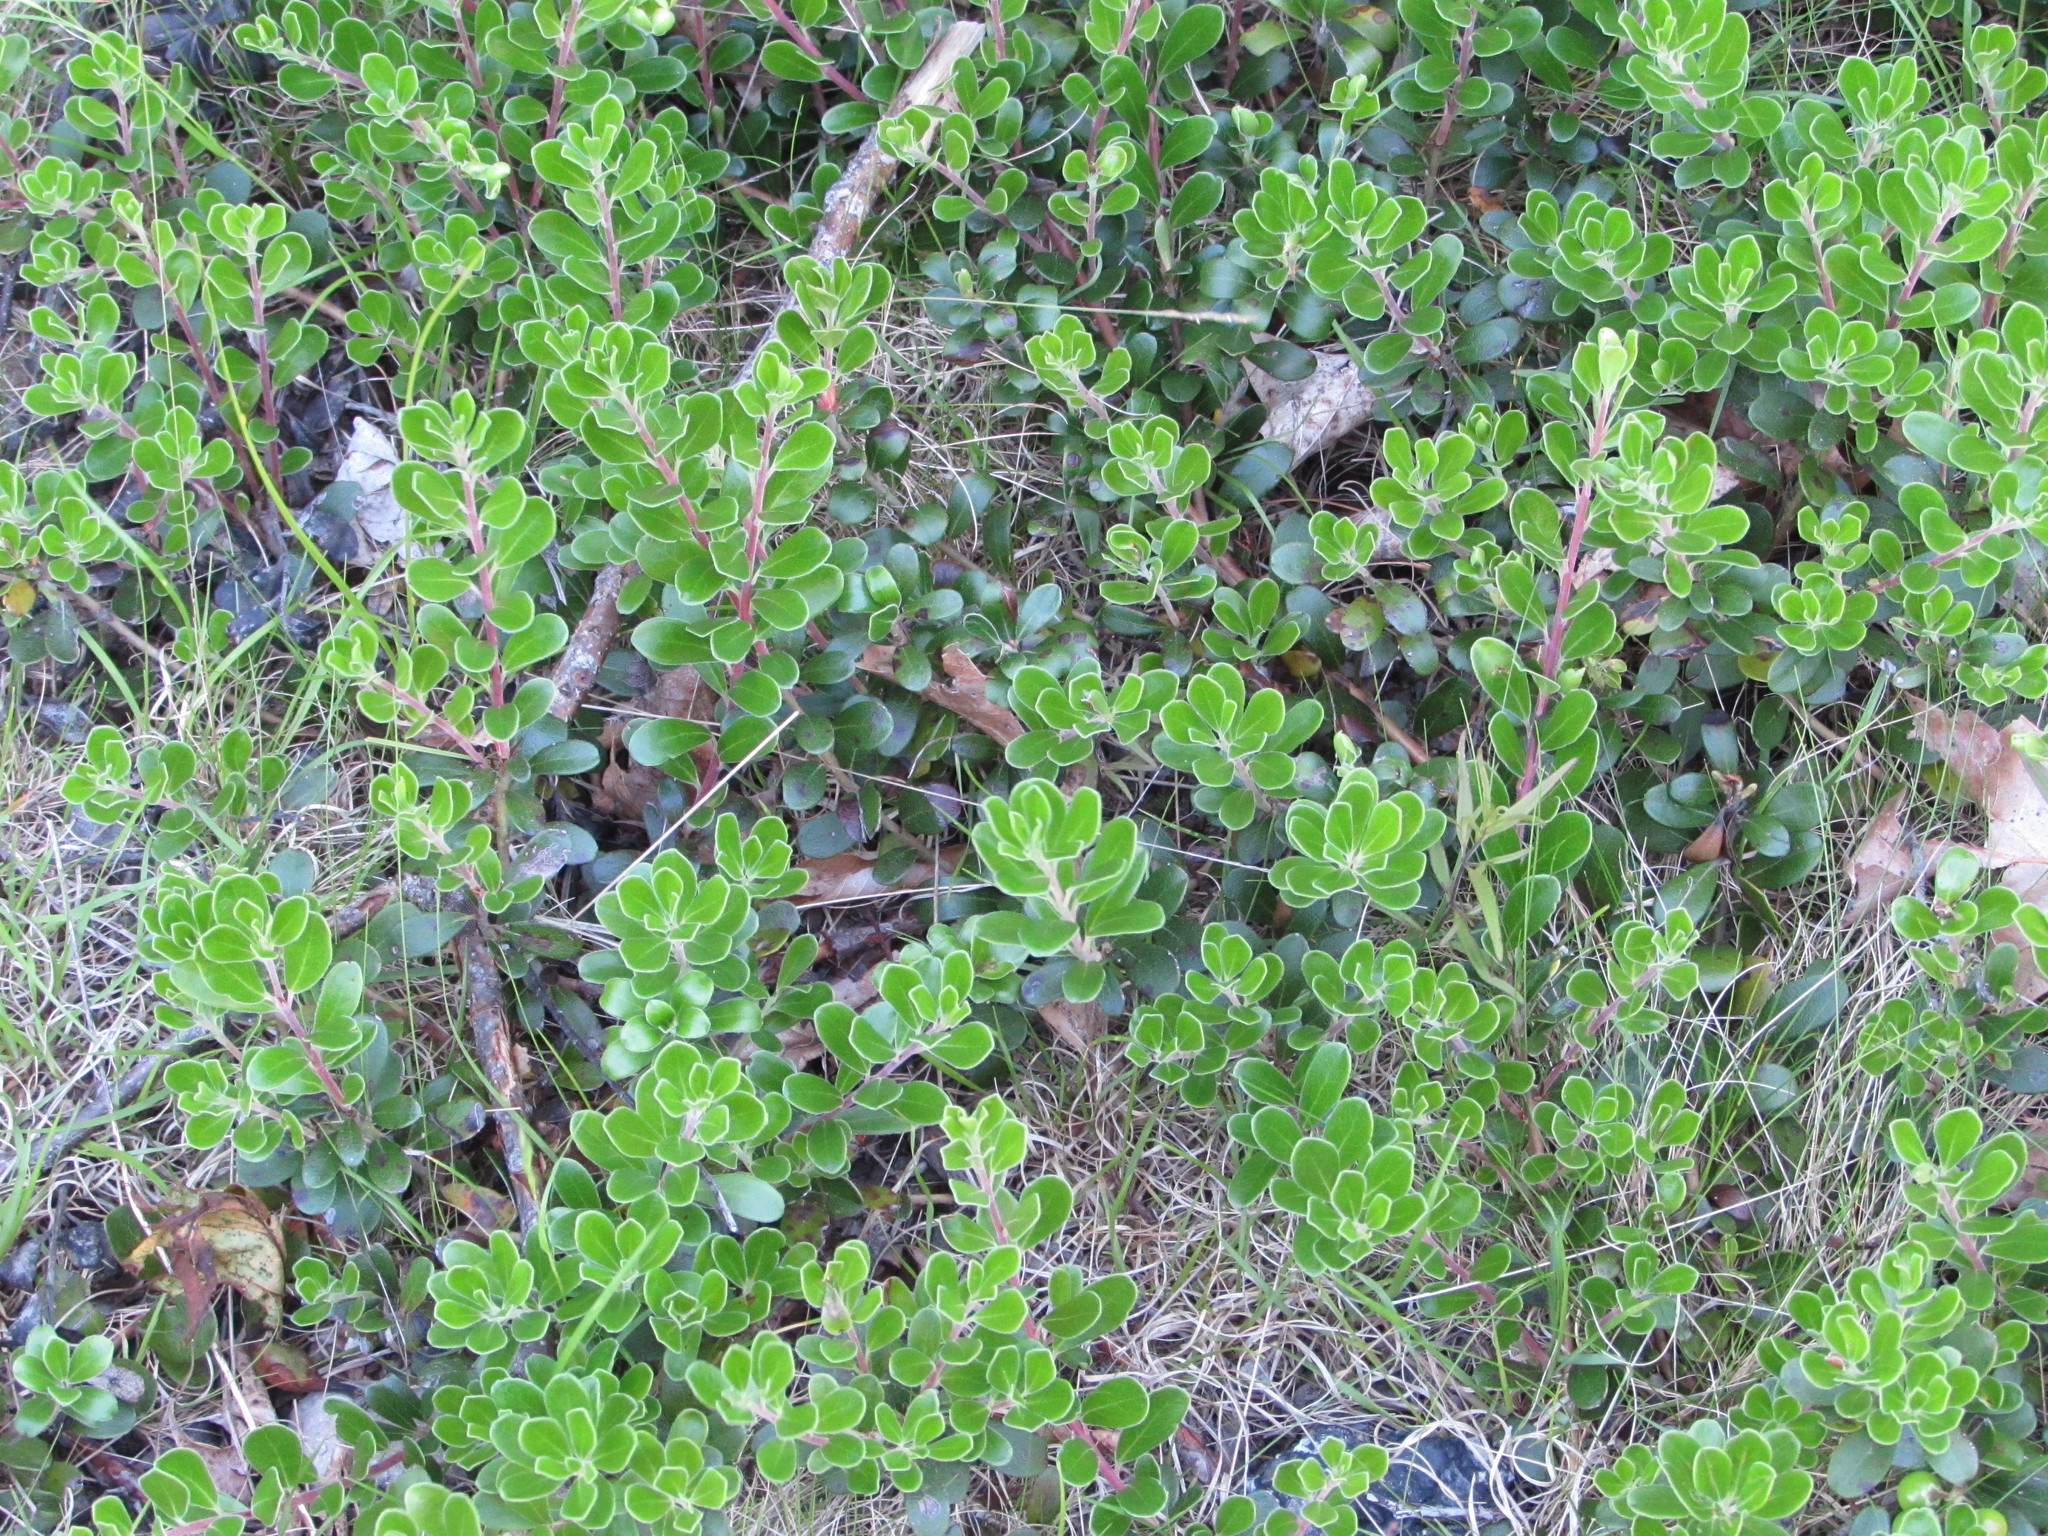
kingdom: Plantae
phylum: Tracheophyta
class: Magnoliopsida
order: Ericales
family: Ericaceae
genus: Arctostaphylos
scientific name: Arctostaphylos uva-ursi
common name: Bearberry
